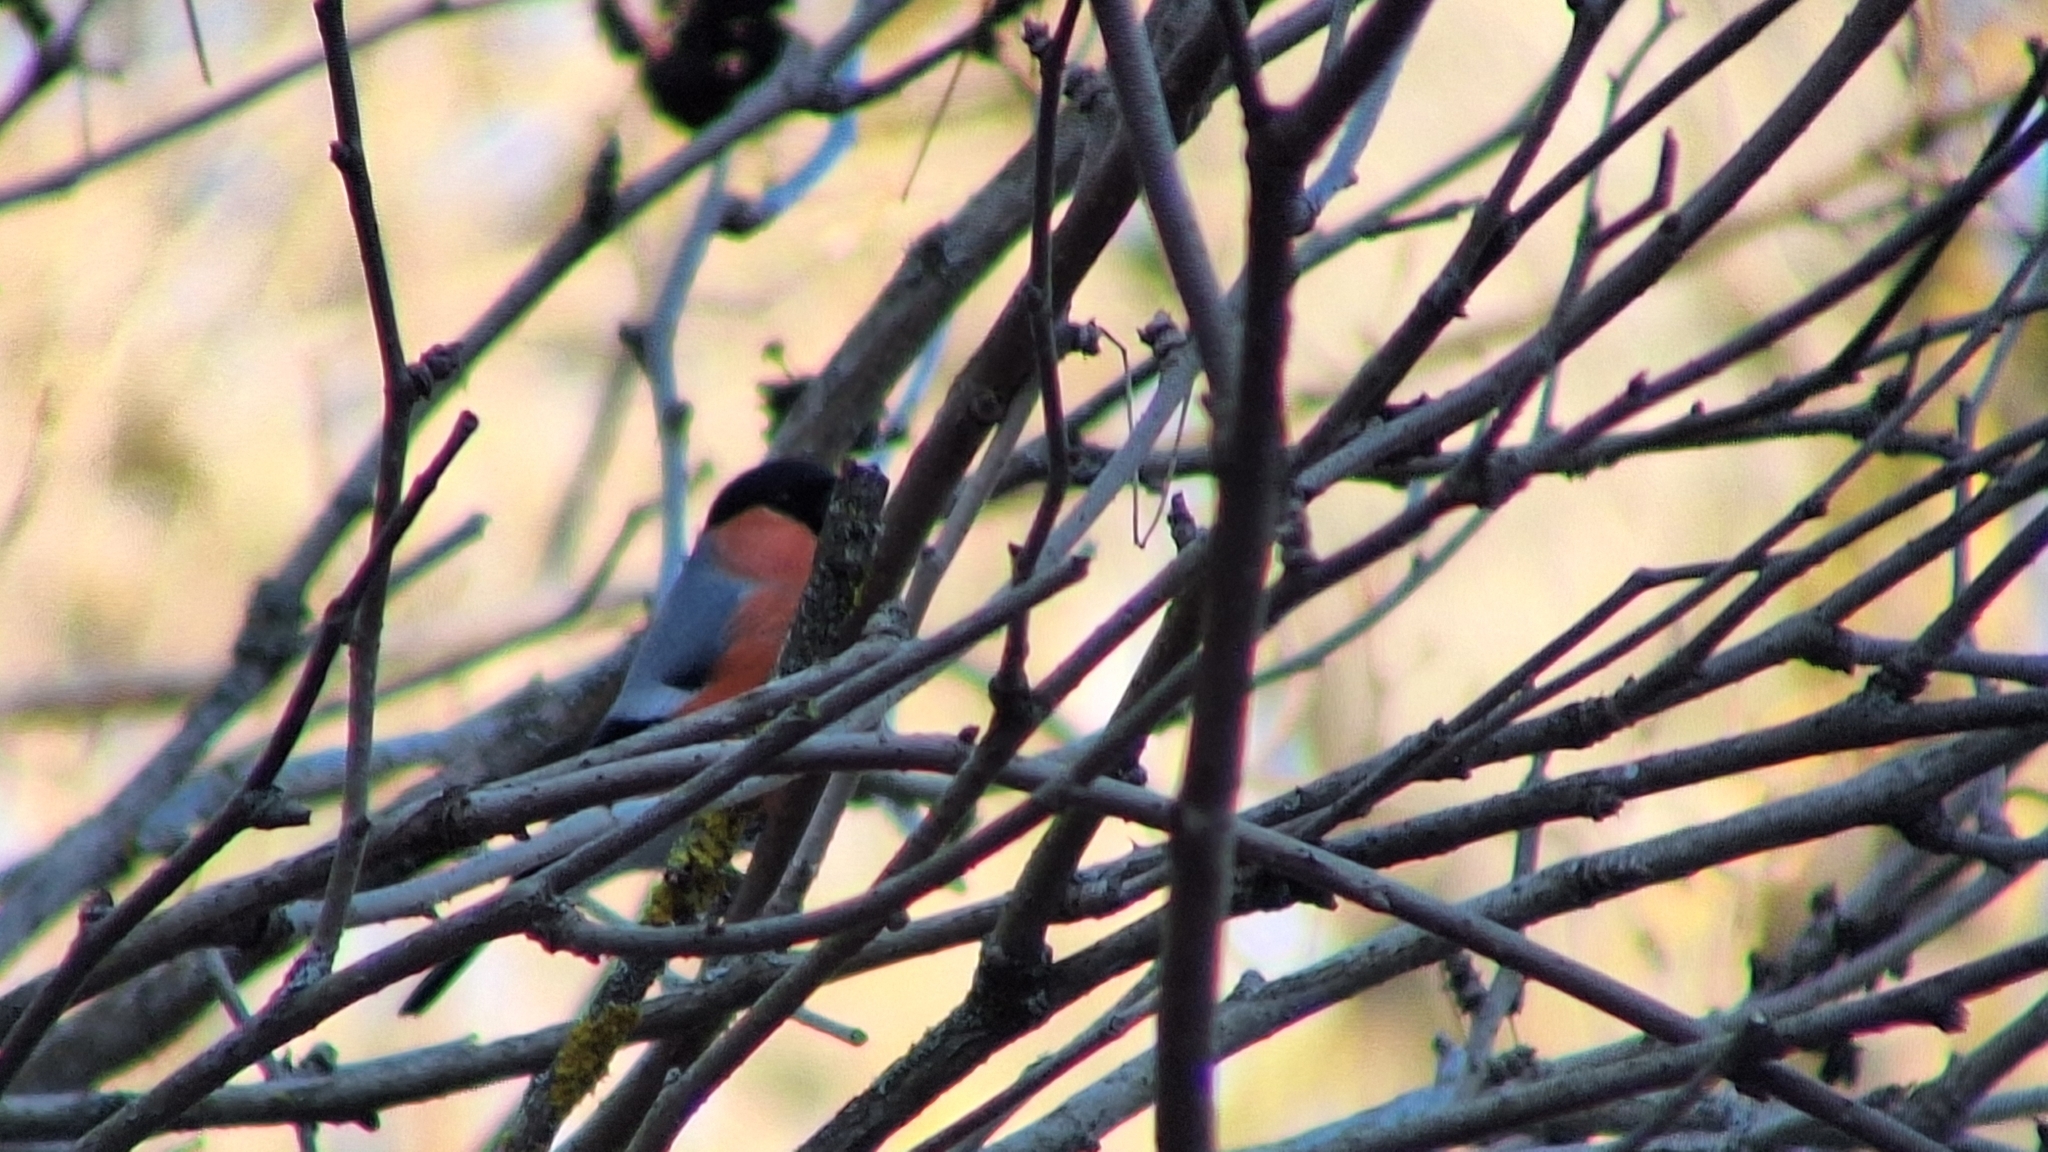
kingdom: Animalia
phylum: Chordata
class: Aves
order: Passeriformes
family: Fringillidae
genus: Pyrrhula
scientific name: Pyrrhula pyrrhula
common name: Eurasian bullfinch
